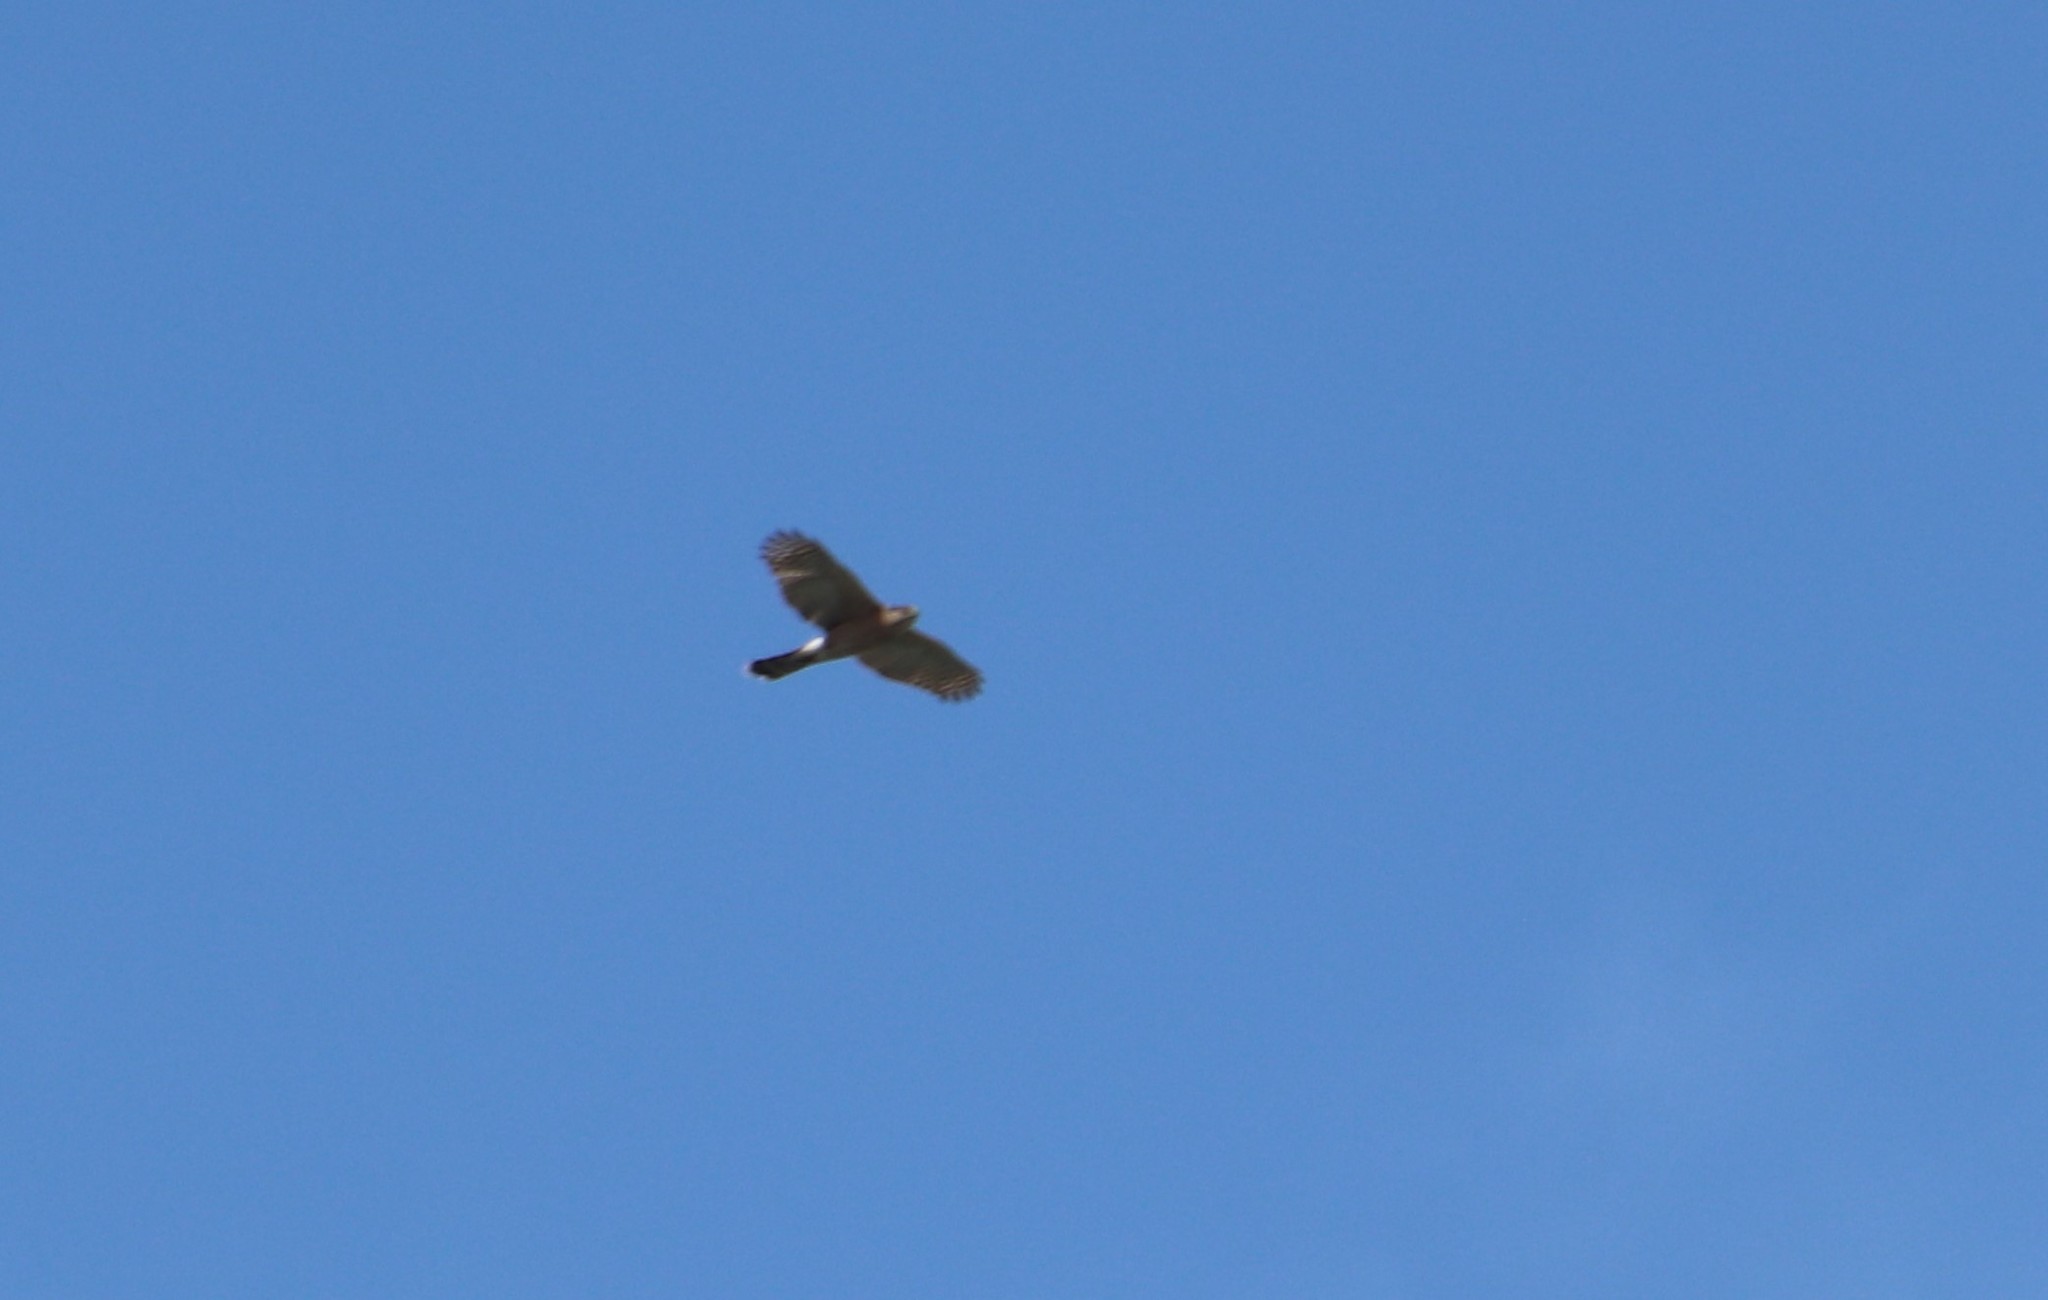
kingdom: Animalia
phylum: Chordata
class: Aves
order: Accipitriformes
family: Accipitridae
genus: Accipiter
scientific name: Accipiter cooperii
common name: Cooper's hawk
